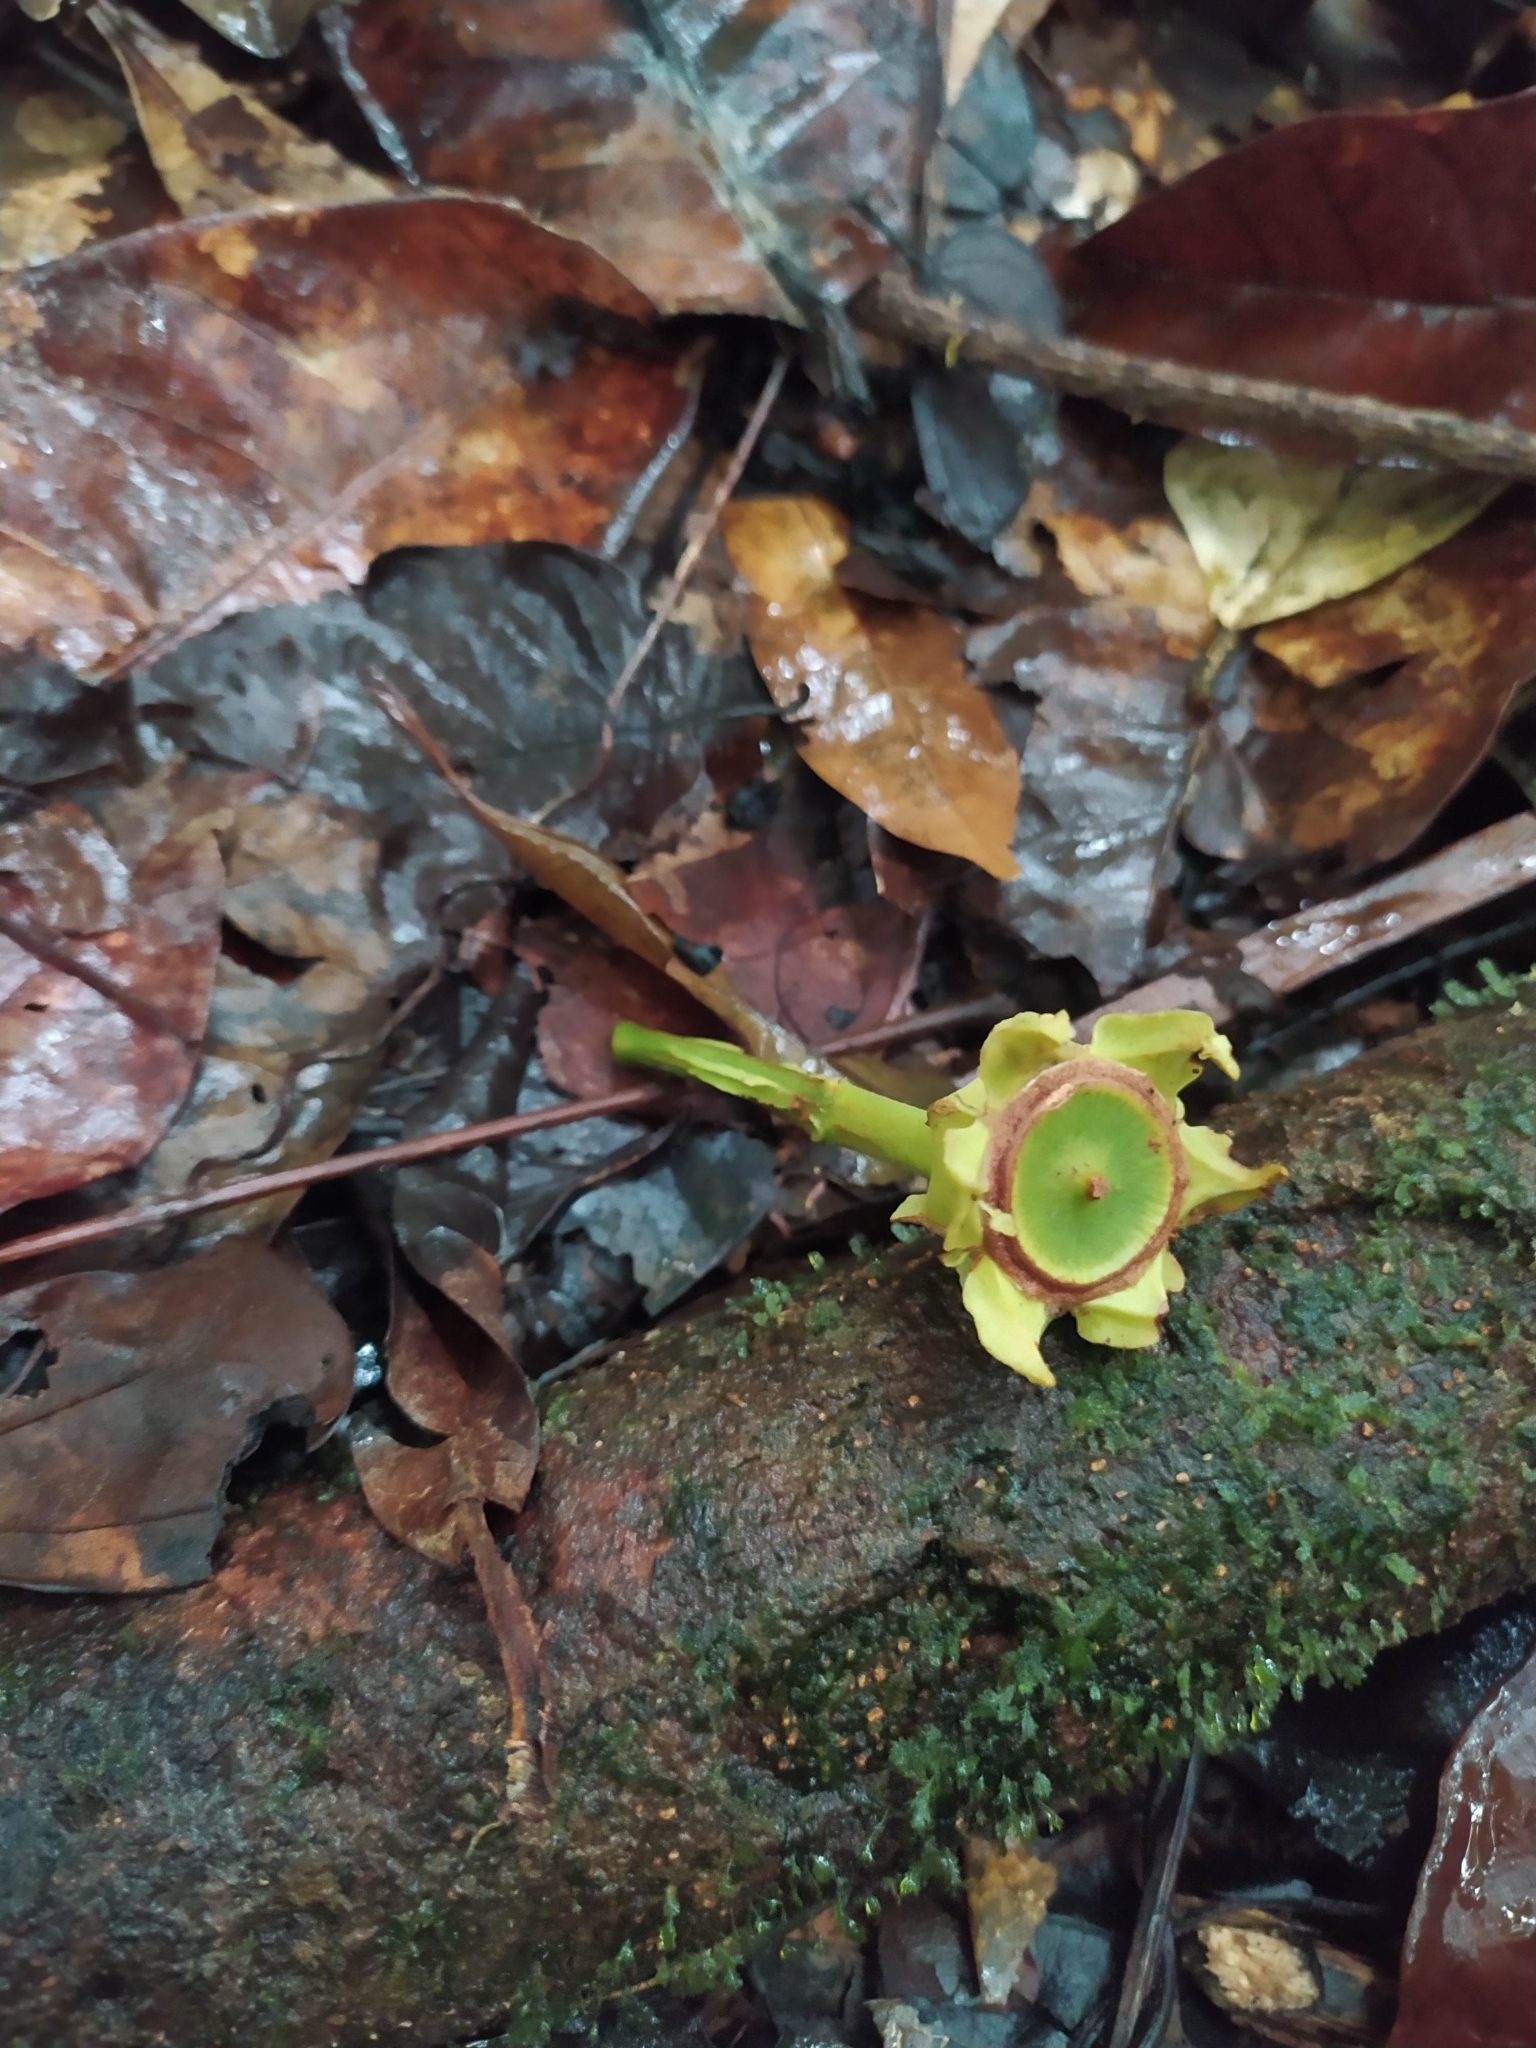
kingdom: Plantae
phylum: Tracheophyta
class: Magnoliopsida
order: Ericales
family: Lecythidaceae
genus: Gustavia
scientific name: Gustavia hexapetala
